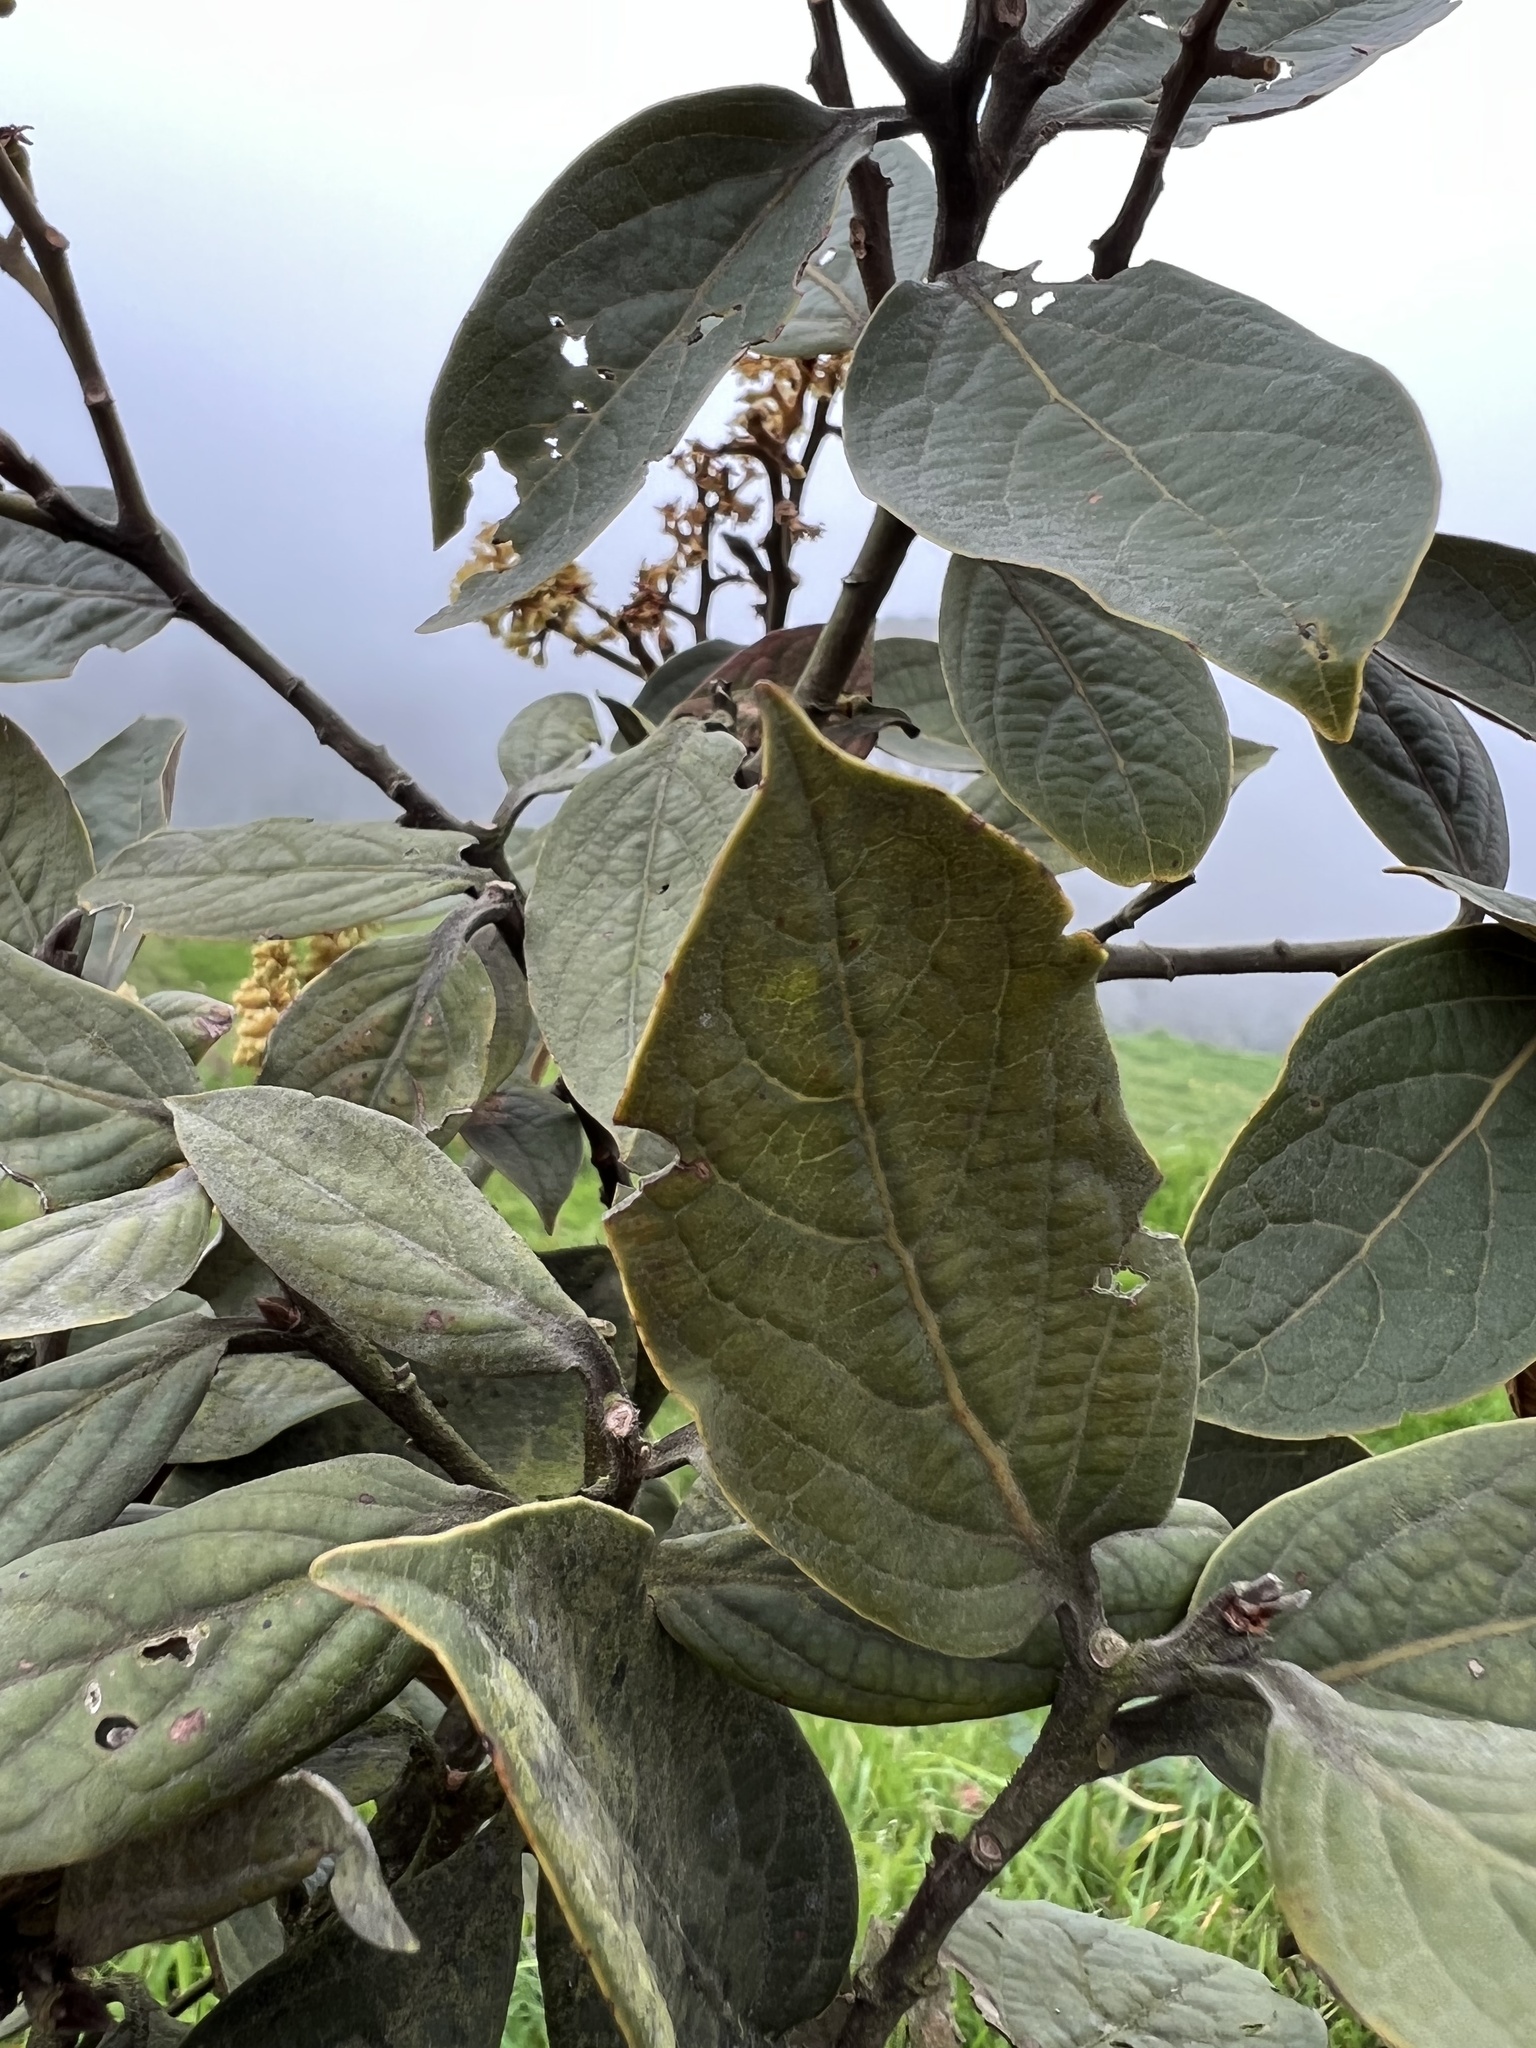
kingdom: Plantae
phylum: Tracheophyta
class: Magnoliopsida
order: Laurales
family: Lauraceae
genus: Ocotea
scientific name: Ocotea pedicellata
